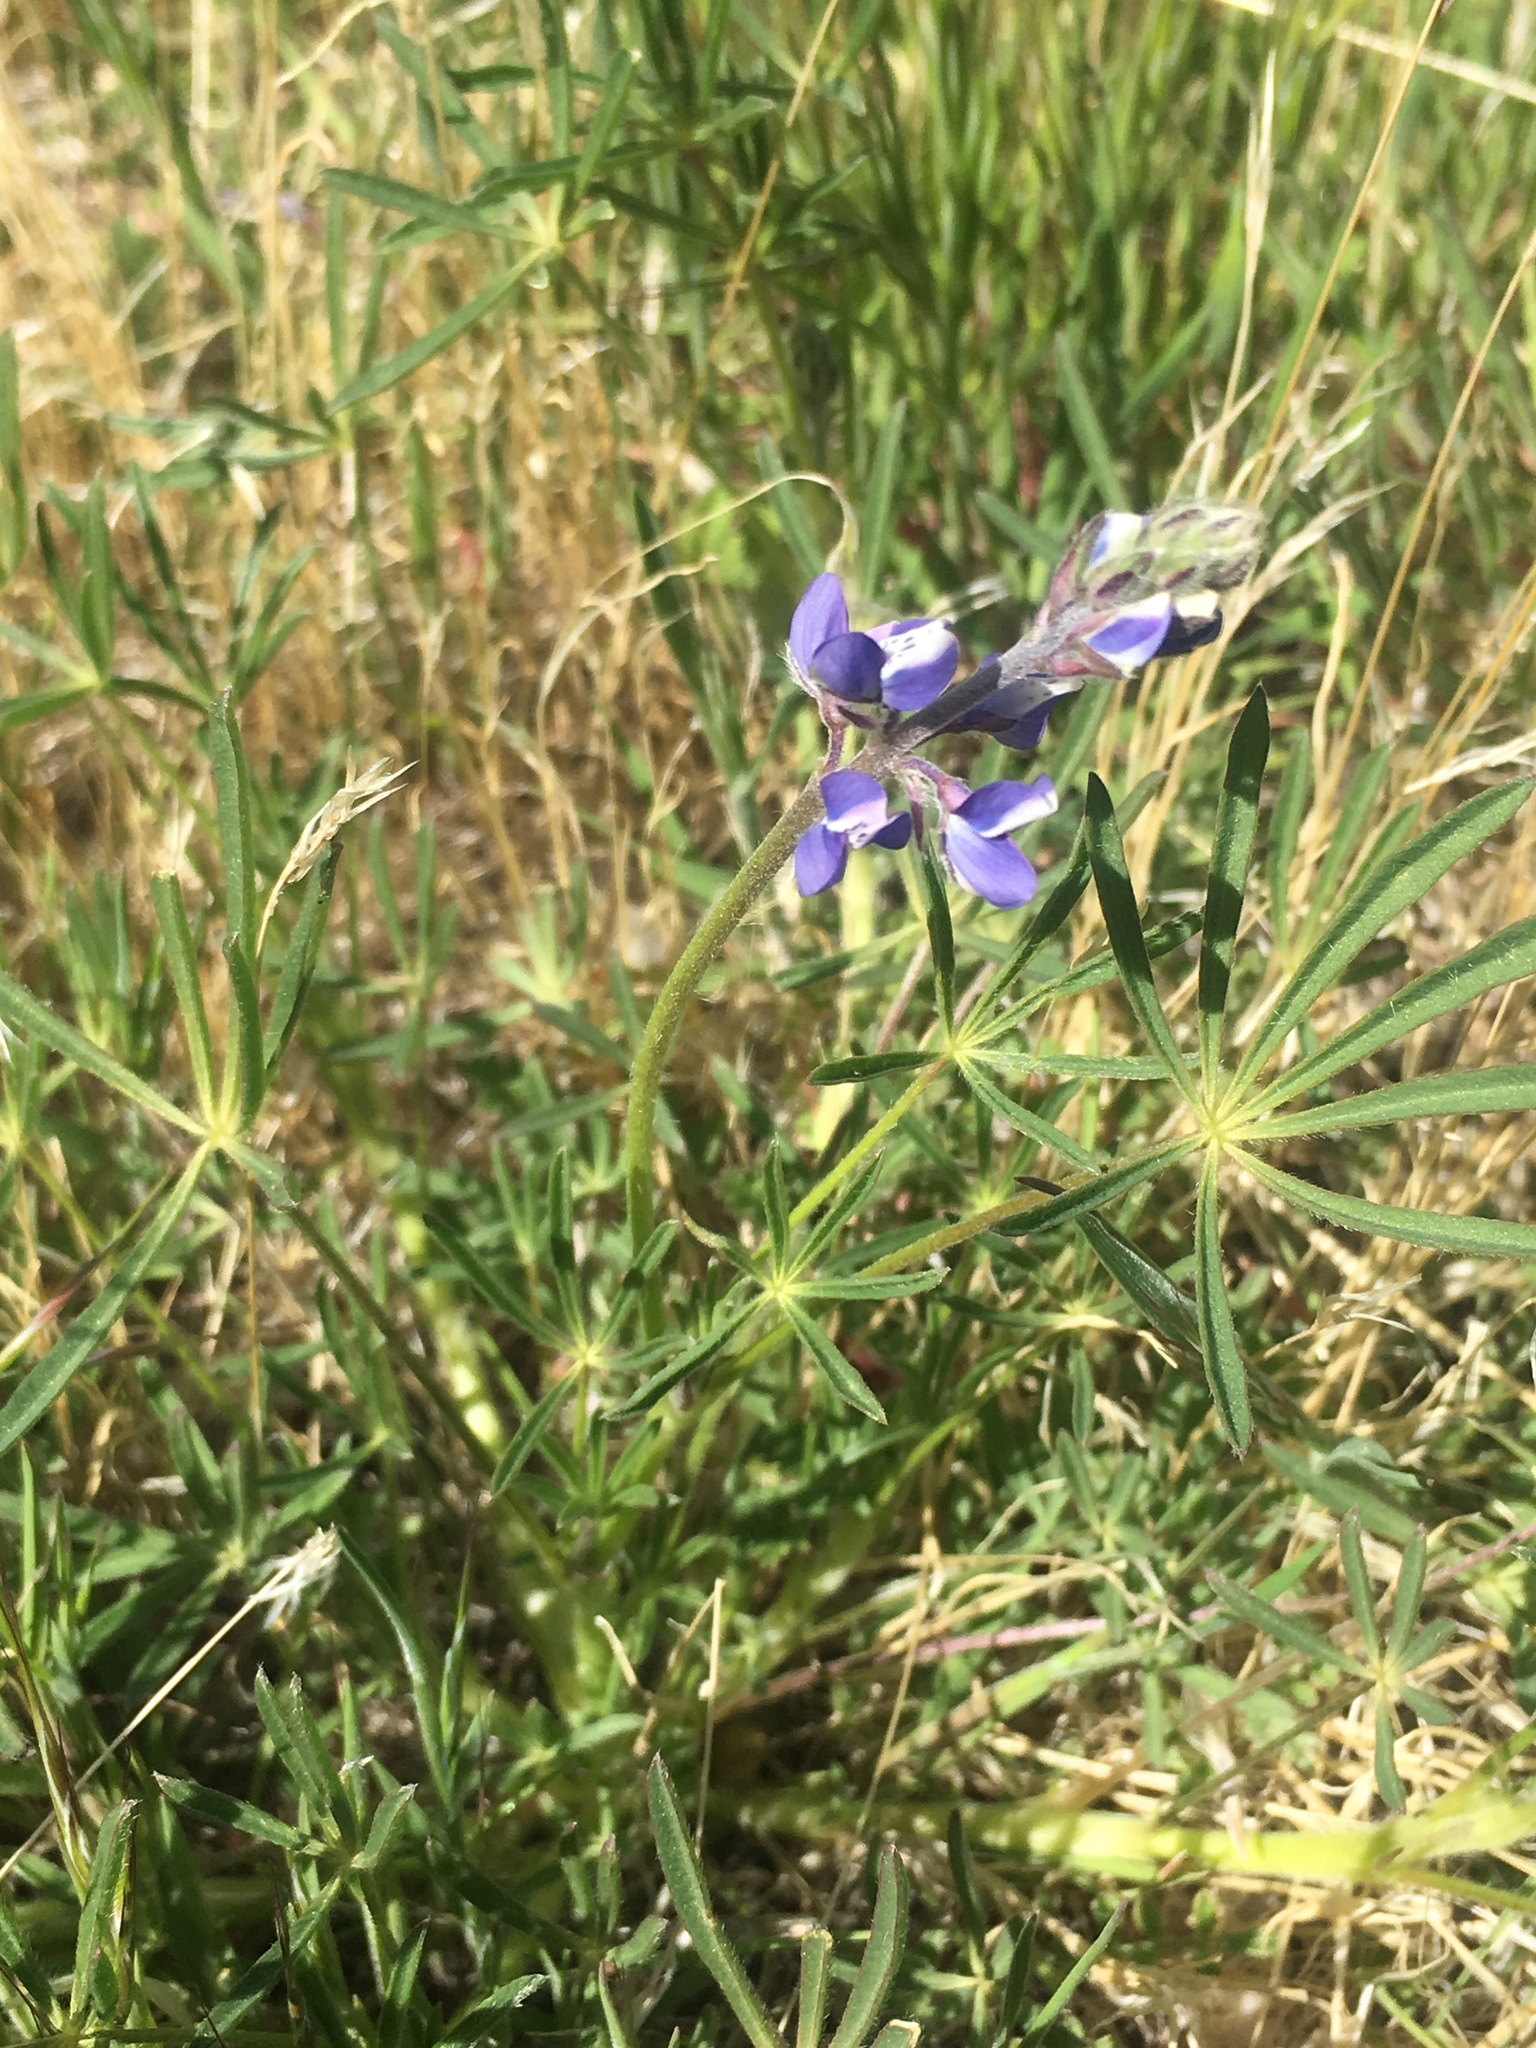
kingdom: Plantae
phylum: Tracheophyta
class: Magnoliopsida
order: Fabales
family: Fabaceae
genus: Lupinus
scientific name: Lupinus bicolor
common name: Miniature lupine
